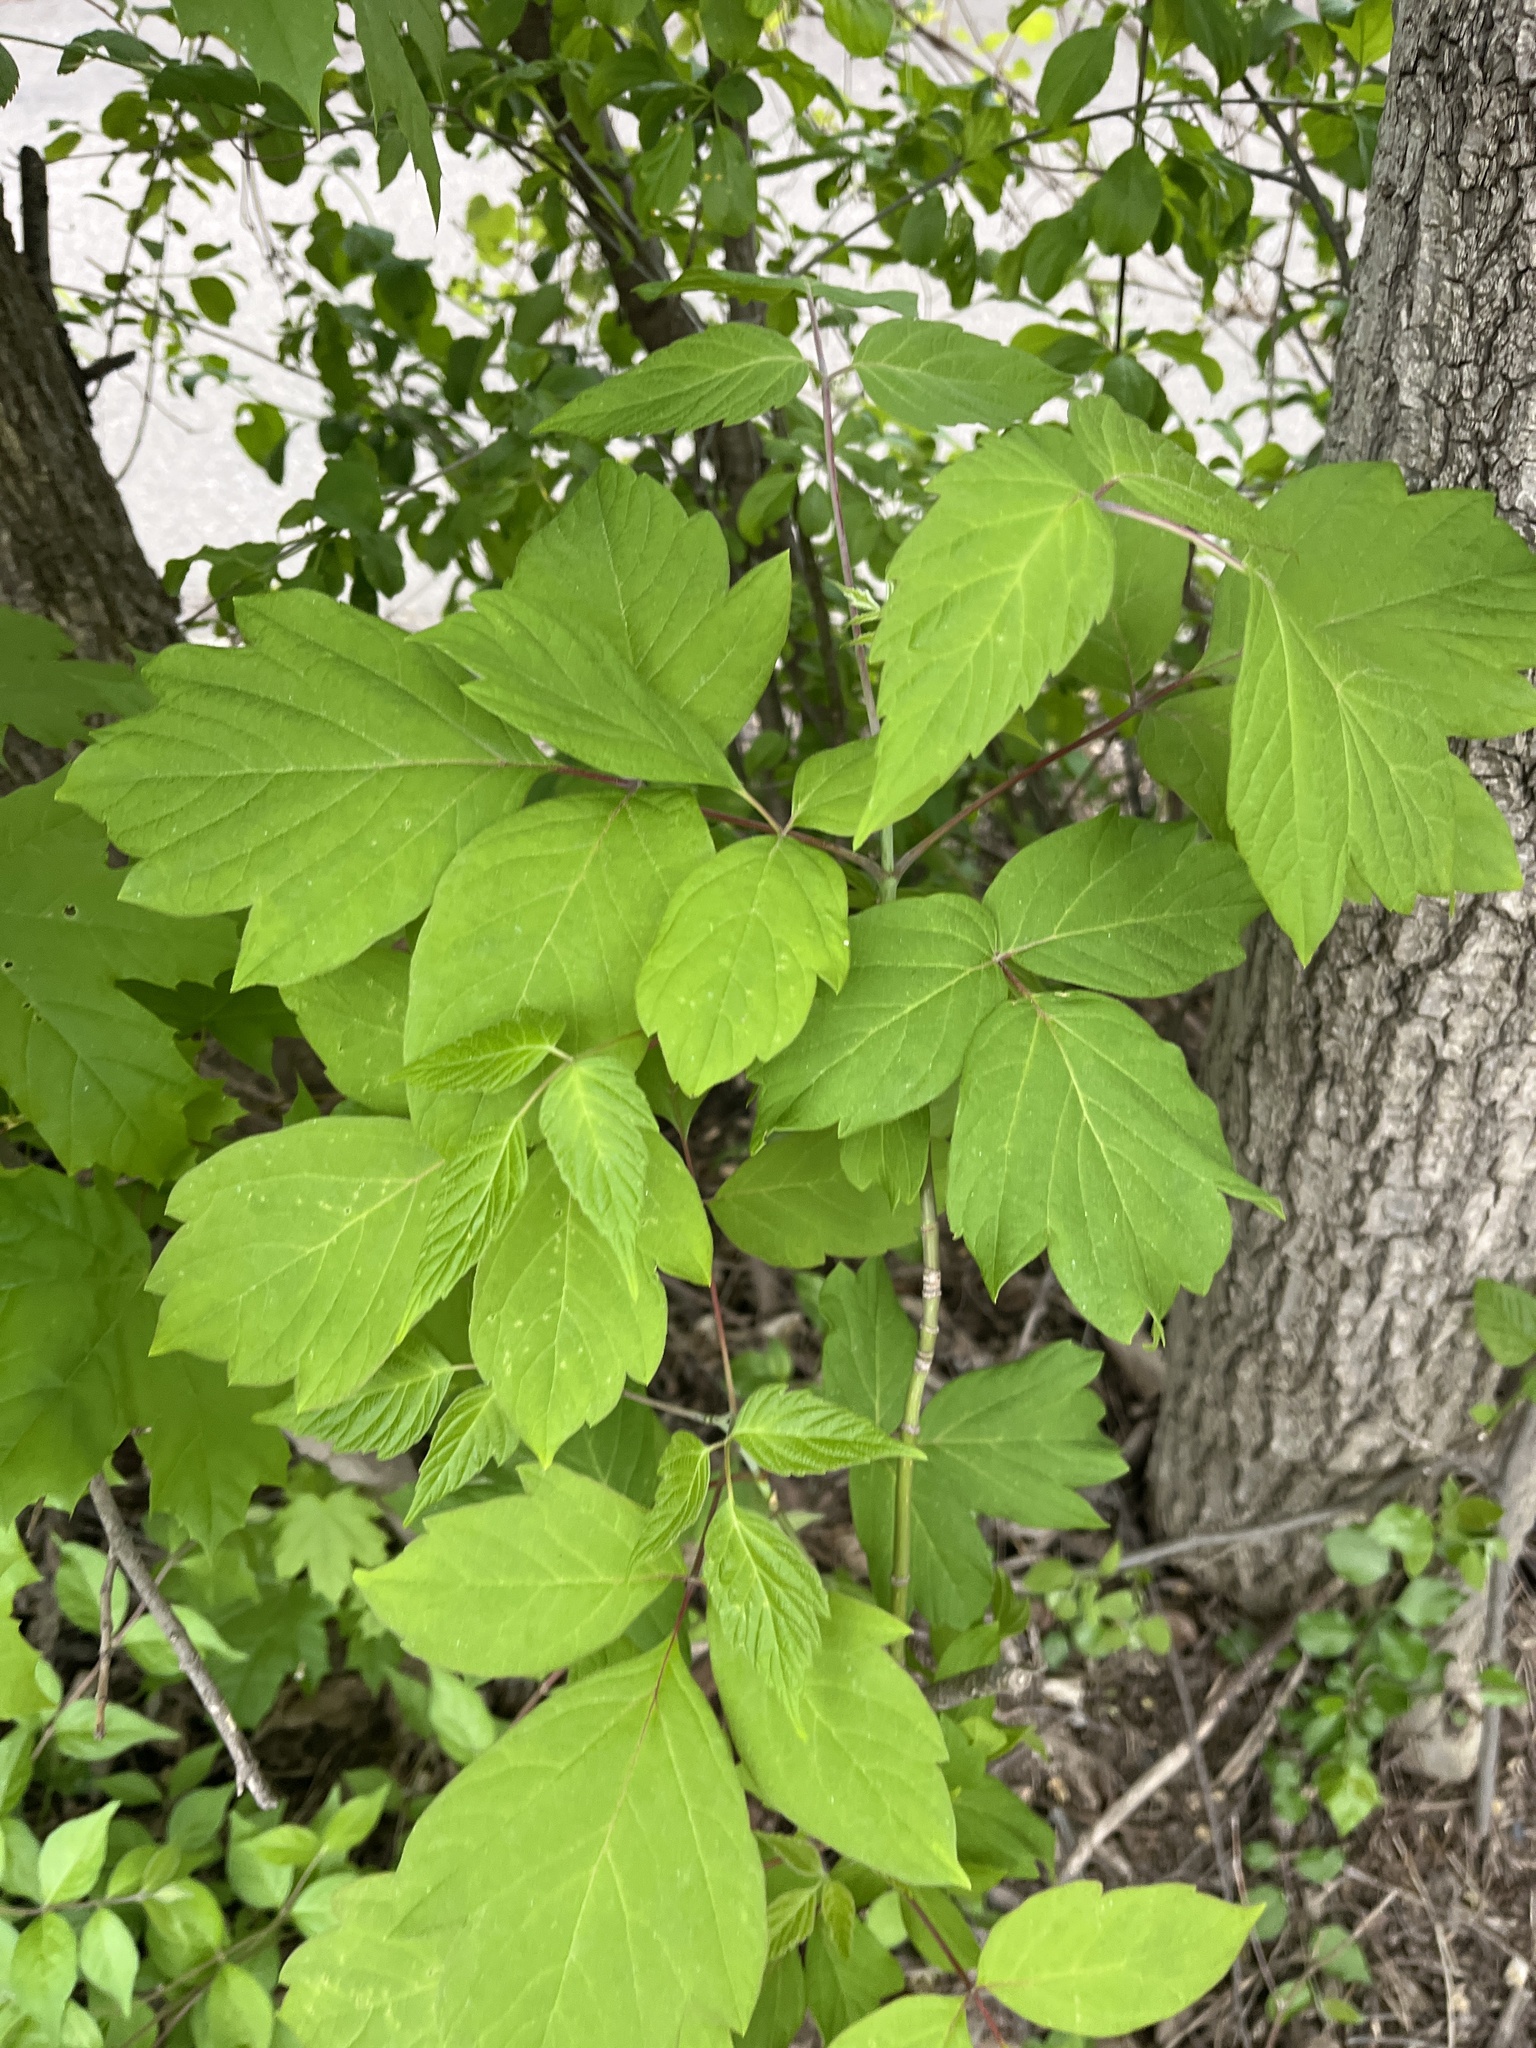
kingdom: Plantae
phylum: Tracheophyta
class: Magnoliopsida
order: Sapindales
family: Sapindaceae
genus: Acer
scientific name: Acer negundo
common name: Ashleaf maple
